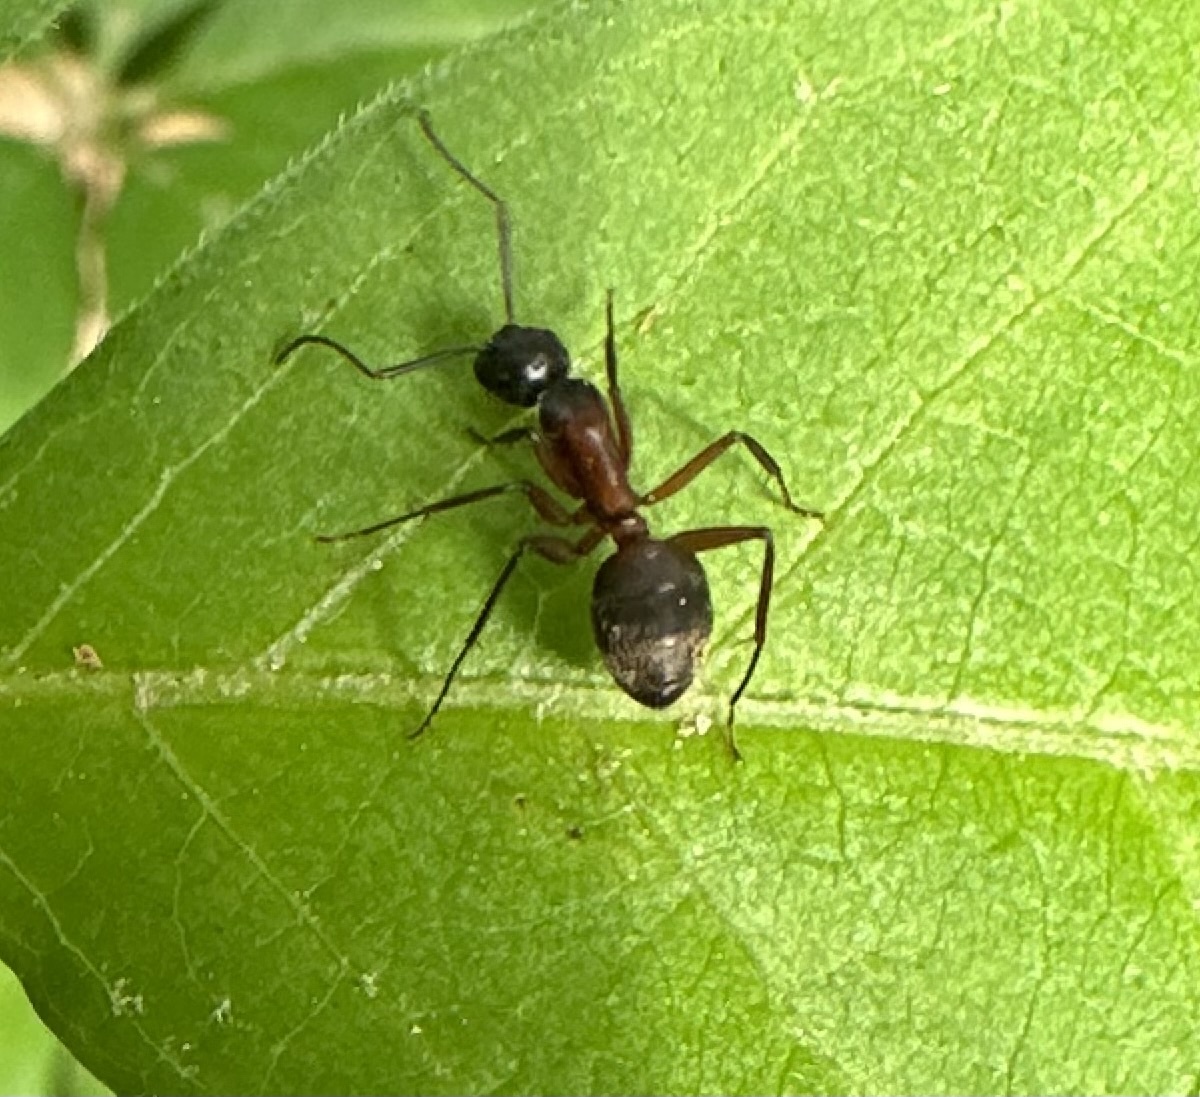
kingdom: Animalia
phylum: Arthropoda
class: Insecta
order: Hymenoptera
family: Formicidae
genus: Camponotus
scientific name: Camponotus chromaiodes
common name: Red carpenter ant
